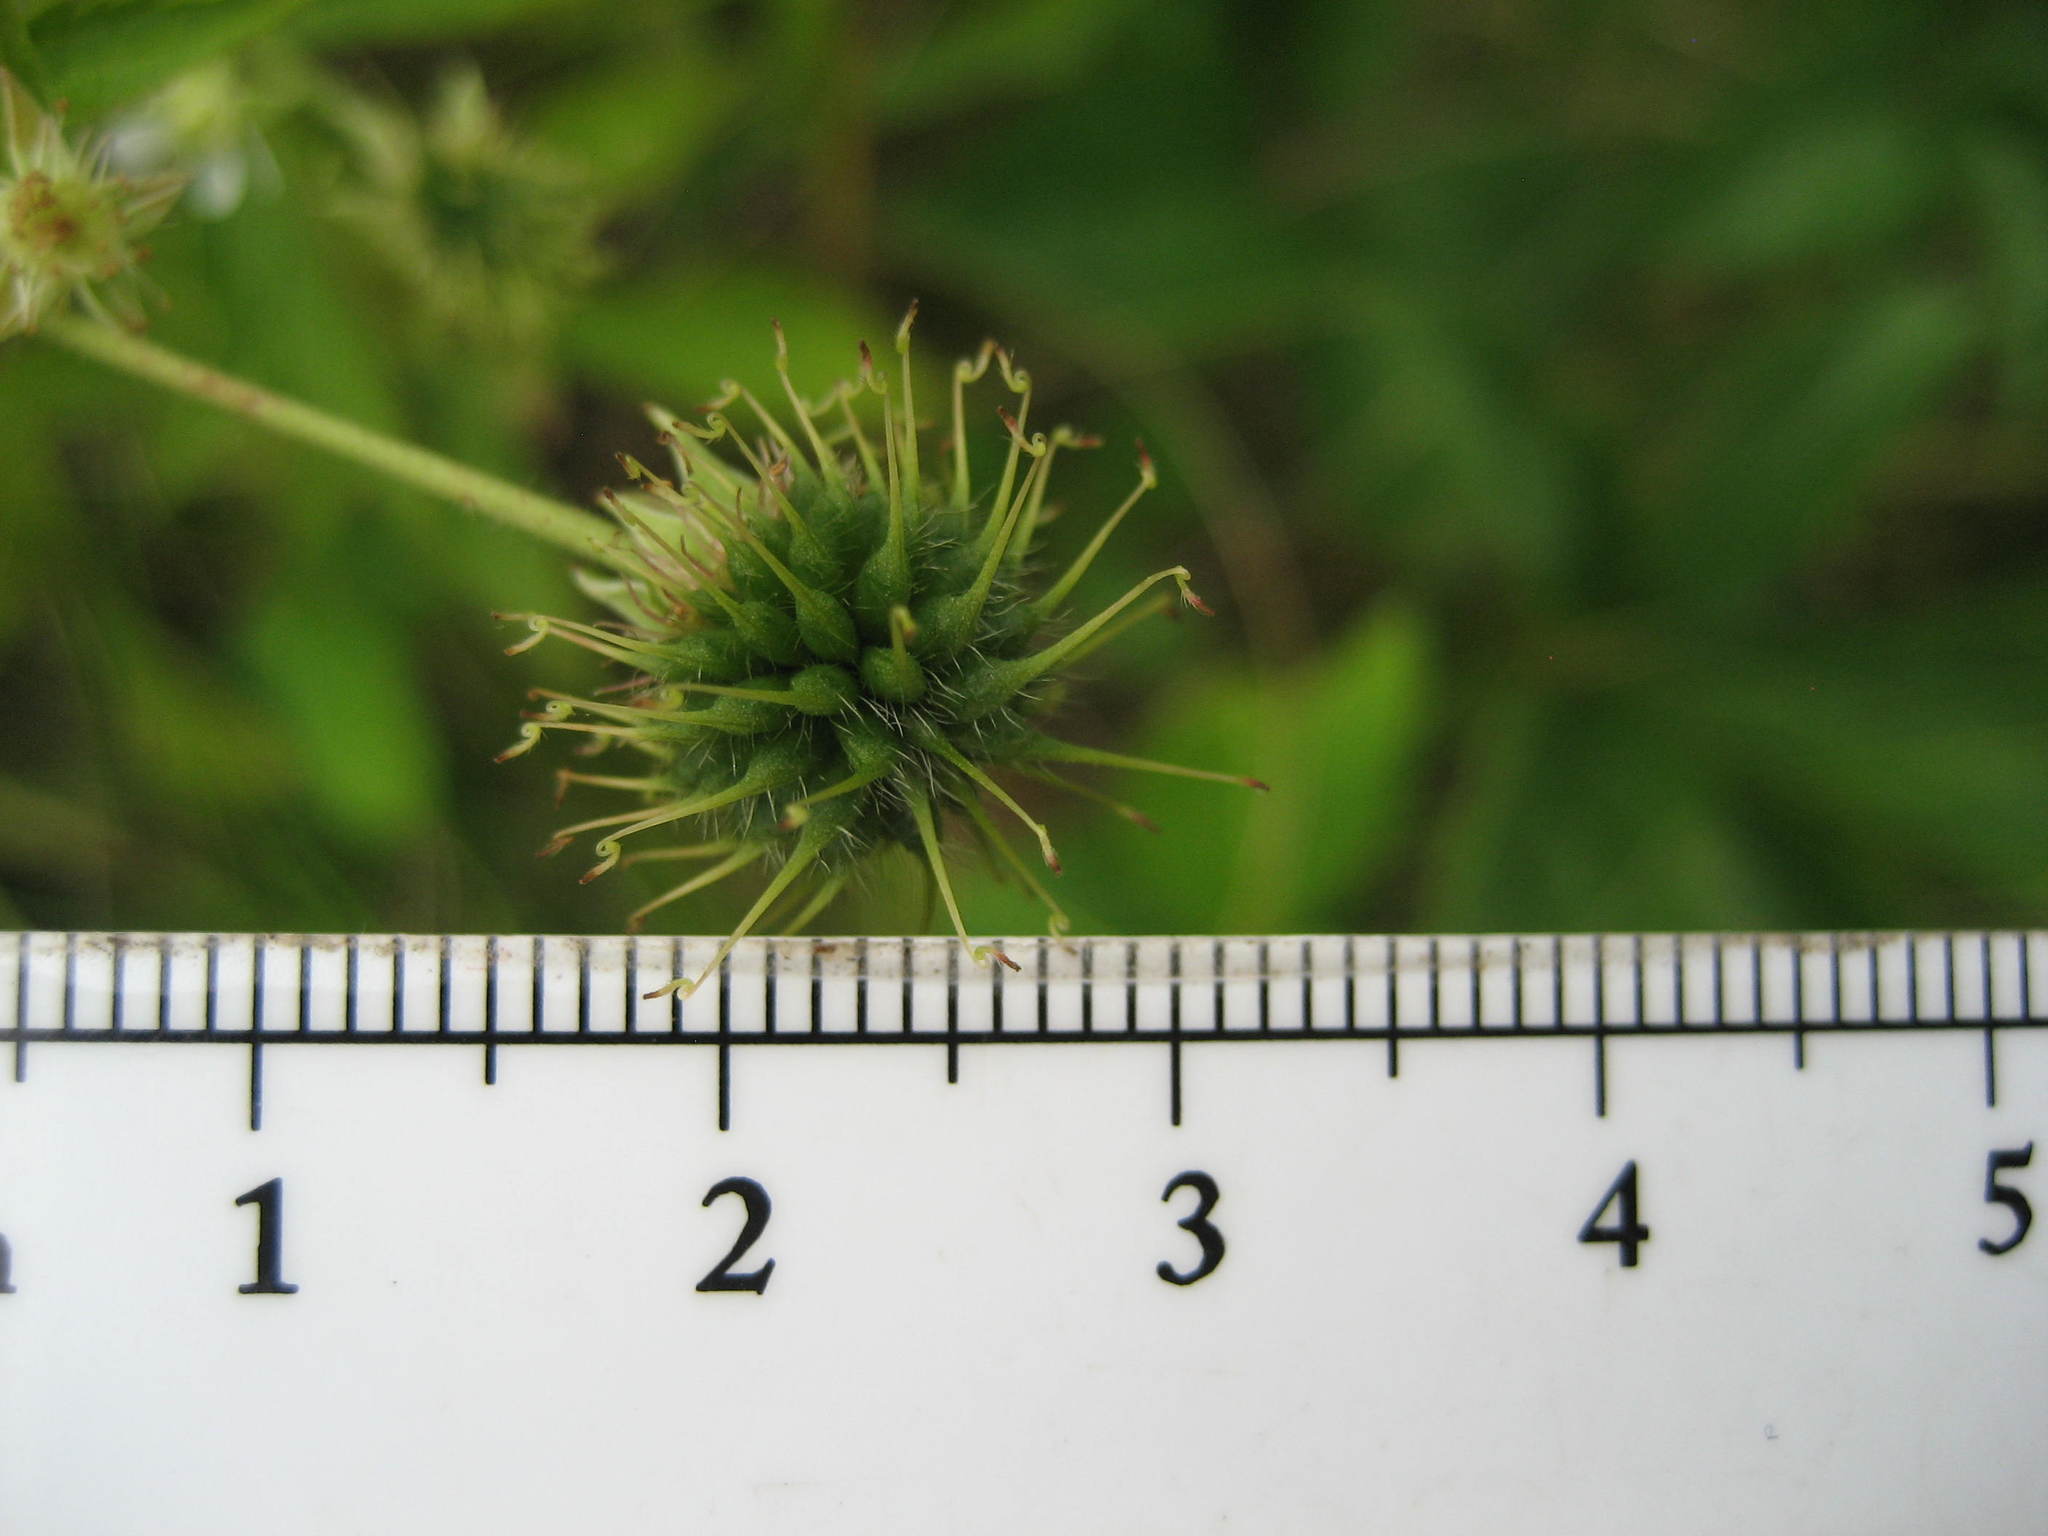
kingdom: Plantae
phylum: Tracheophyta
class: Magnoliopsida
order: Rosales
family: Rosaceae
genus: Geum
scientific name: Geum canadense
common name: White avens
